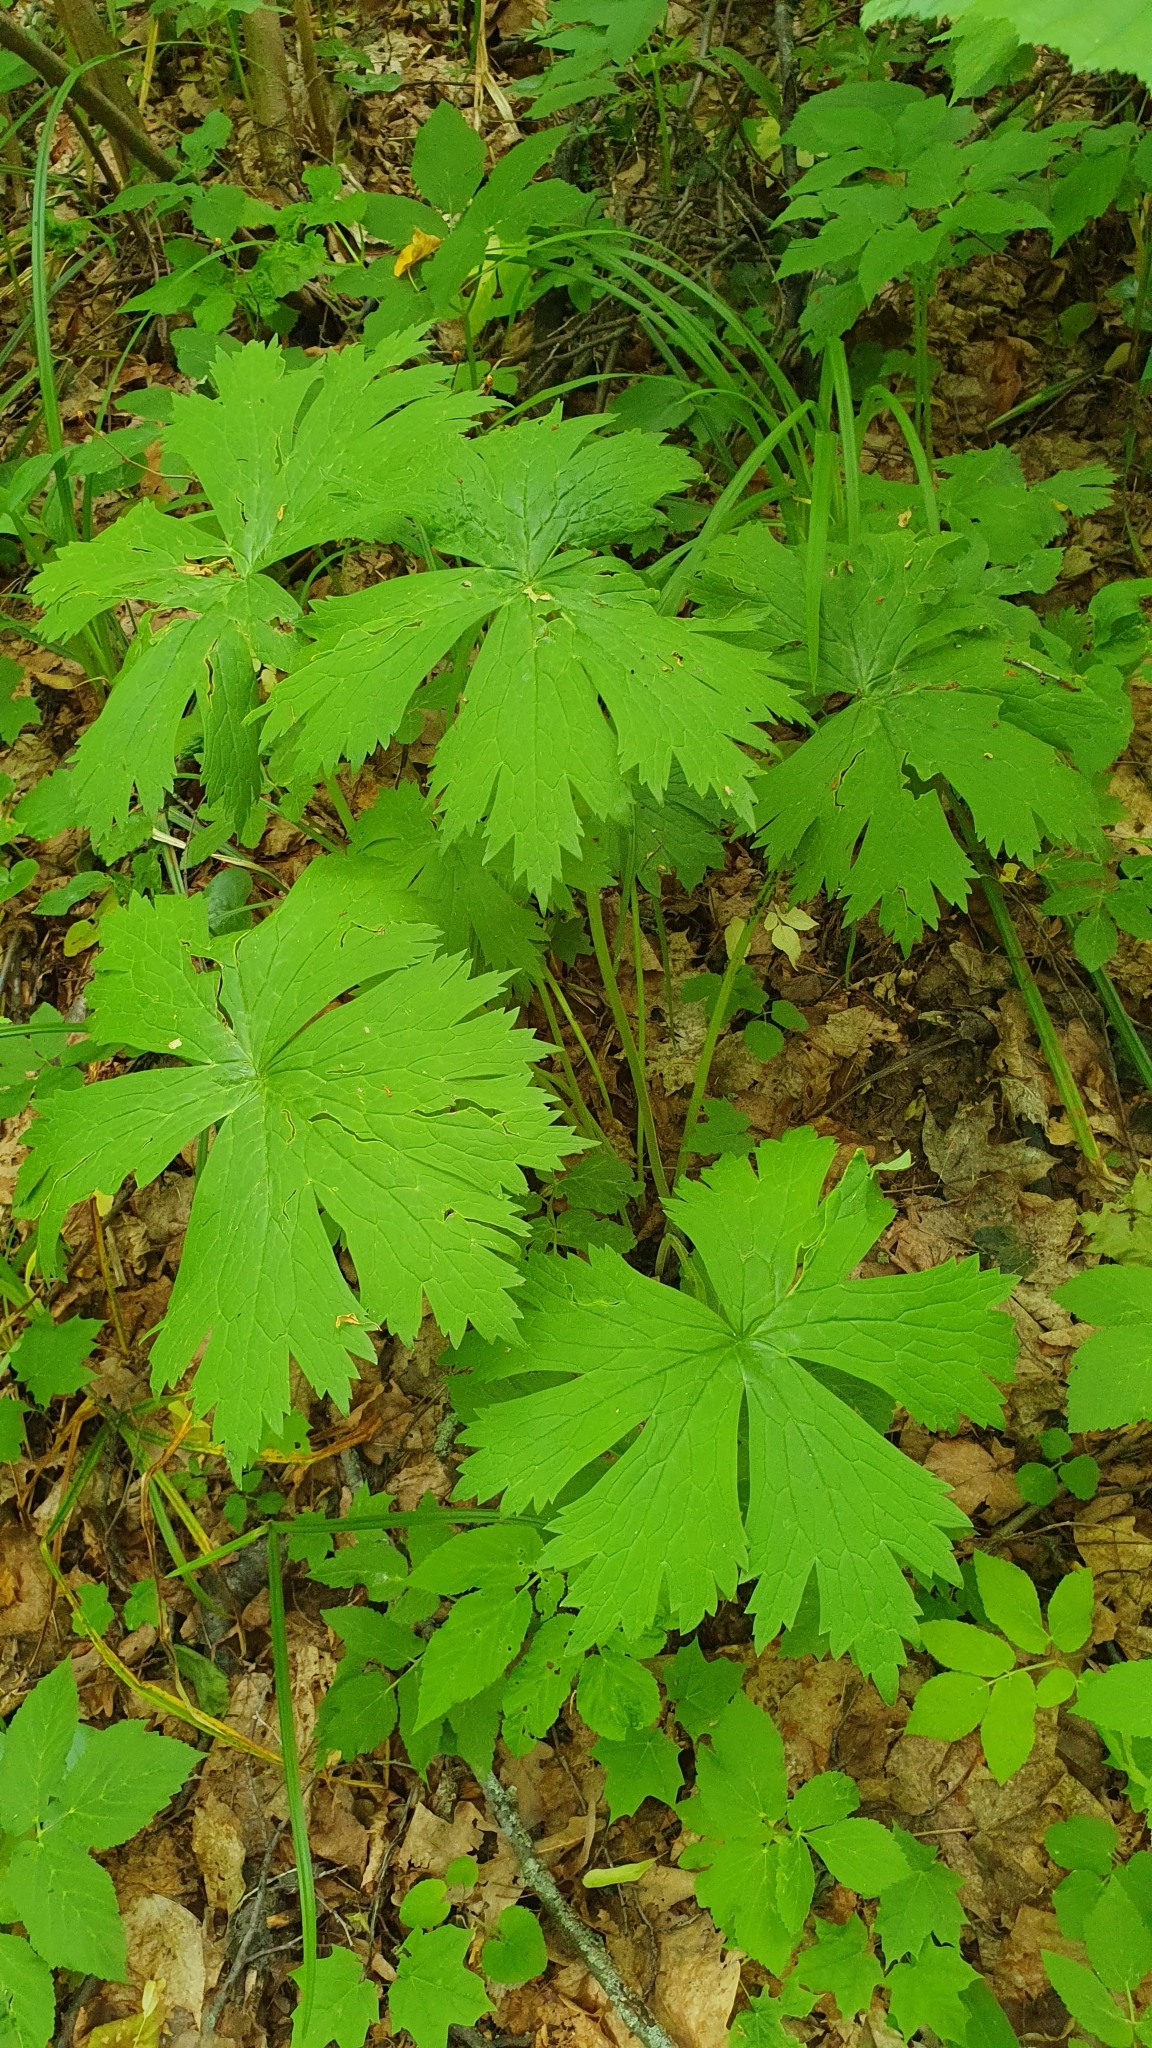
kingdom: Plantae
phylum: Tracheophyta
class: Magnoliopsida
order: Ranunculales
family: Ranunculaceae
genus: Aconitum
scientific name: Aconitum septentrionale
